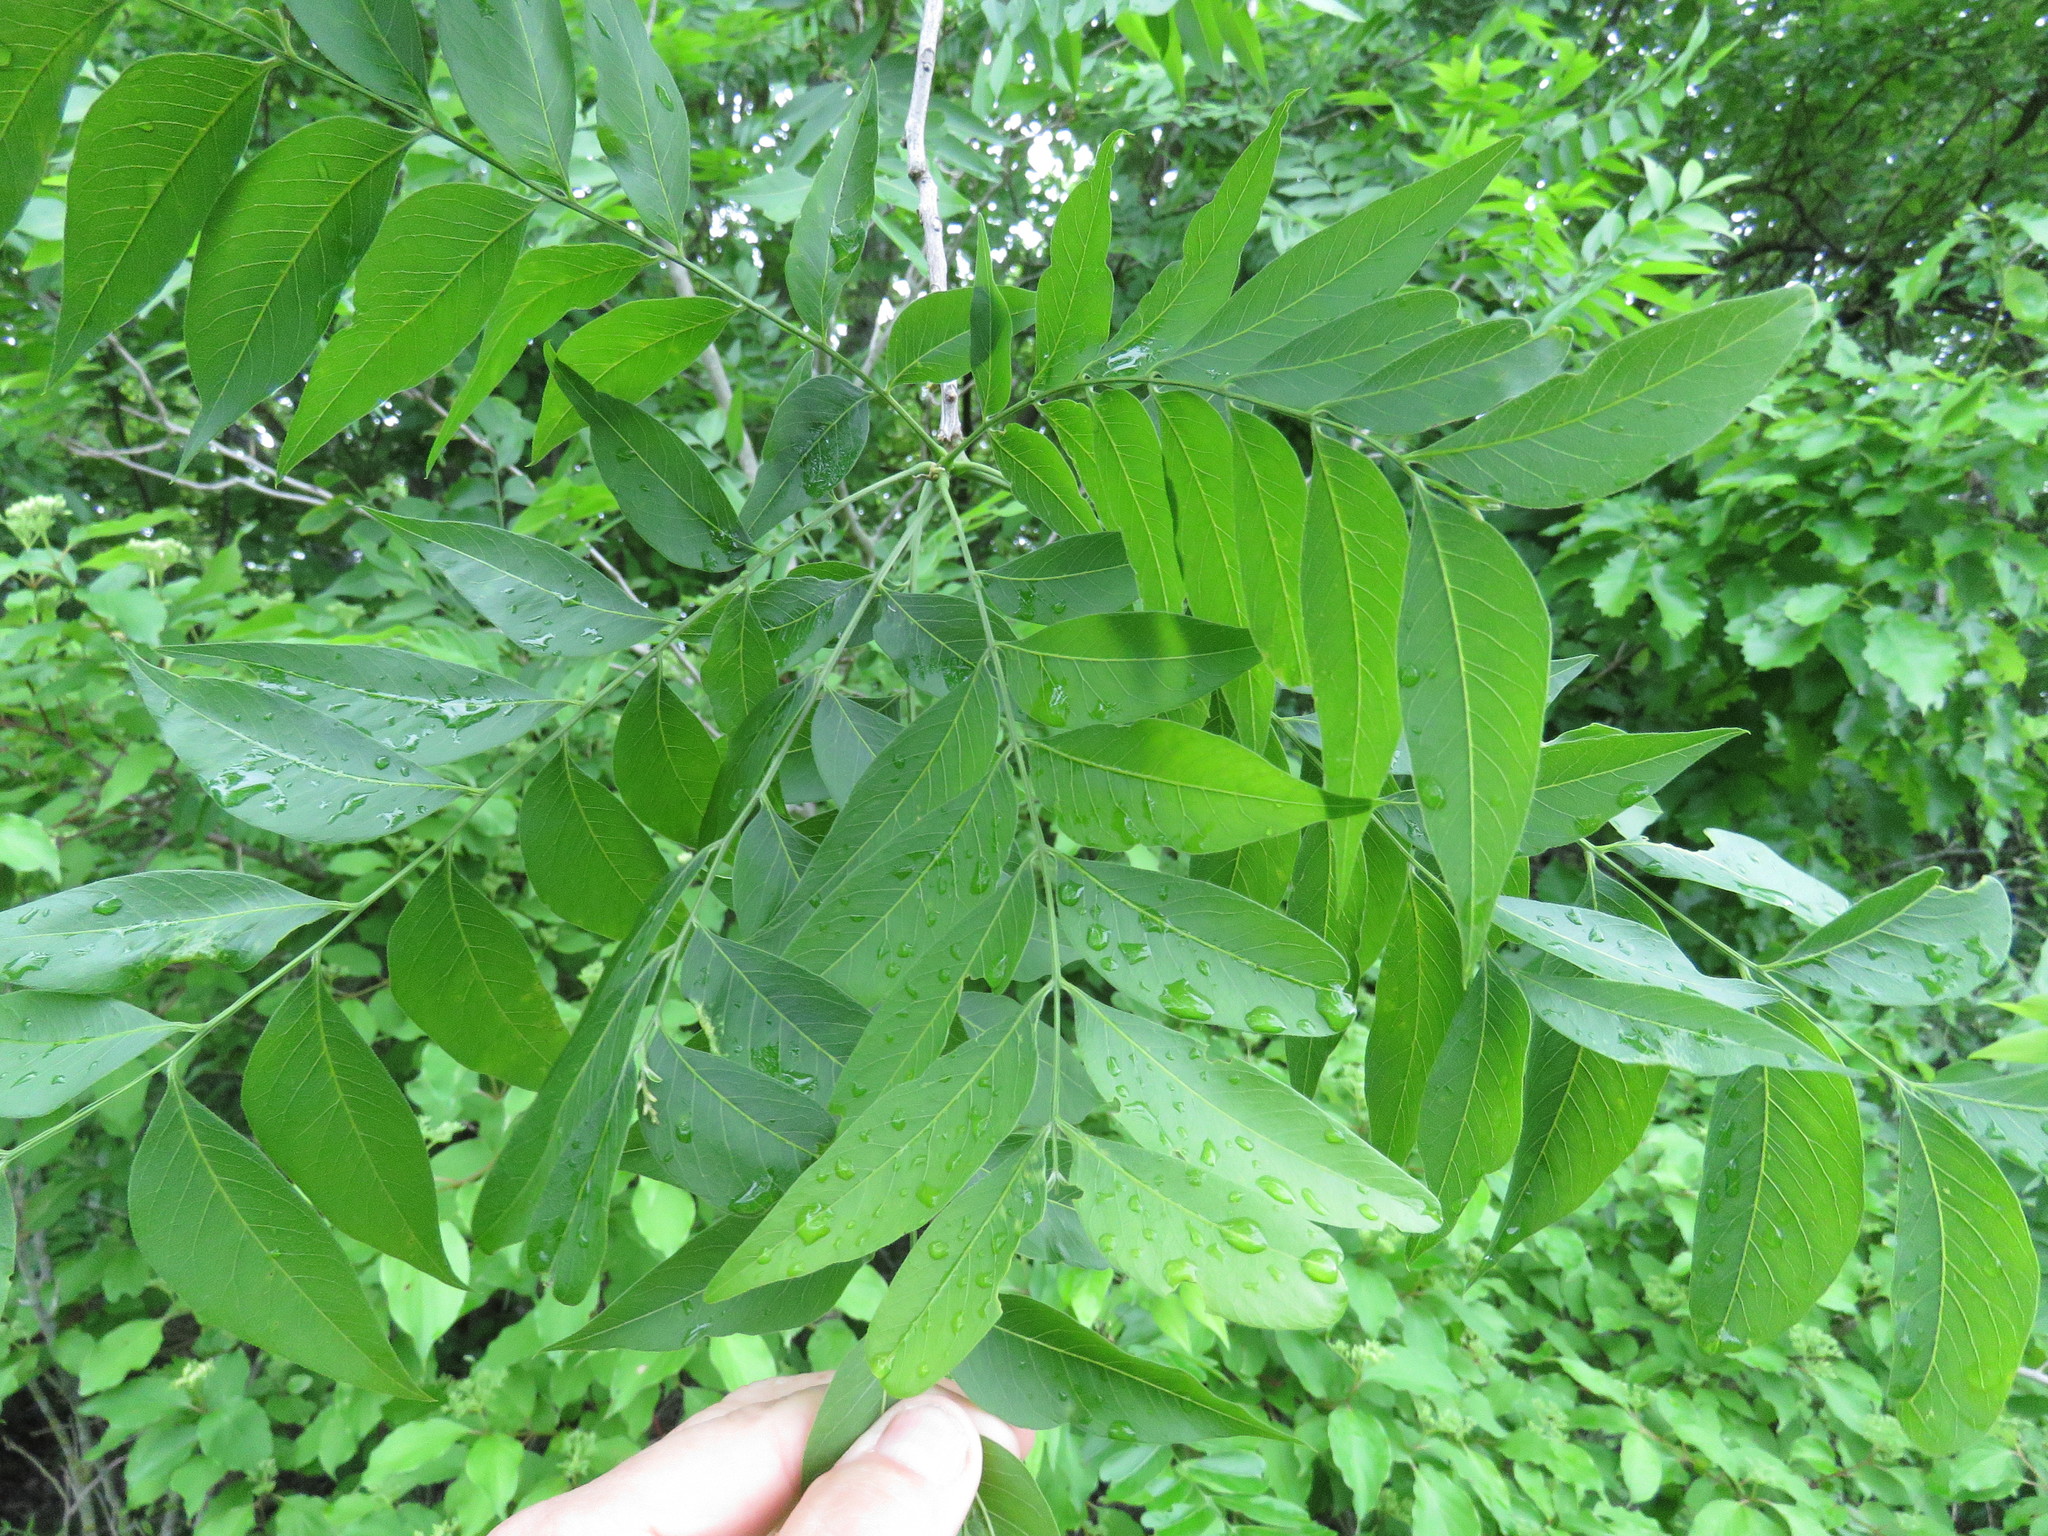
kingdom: Plantae
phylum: Tracheophyta
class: Magnoliopsida
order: Sapindales
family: Sapindaceae
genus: Sapindus
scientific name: Sapindus drummondii
